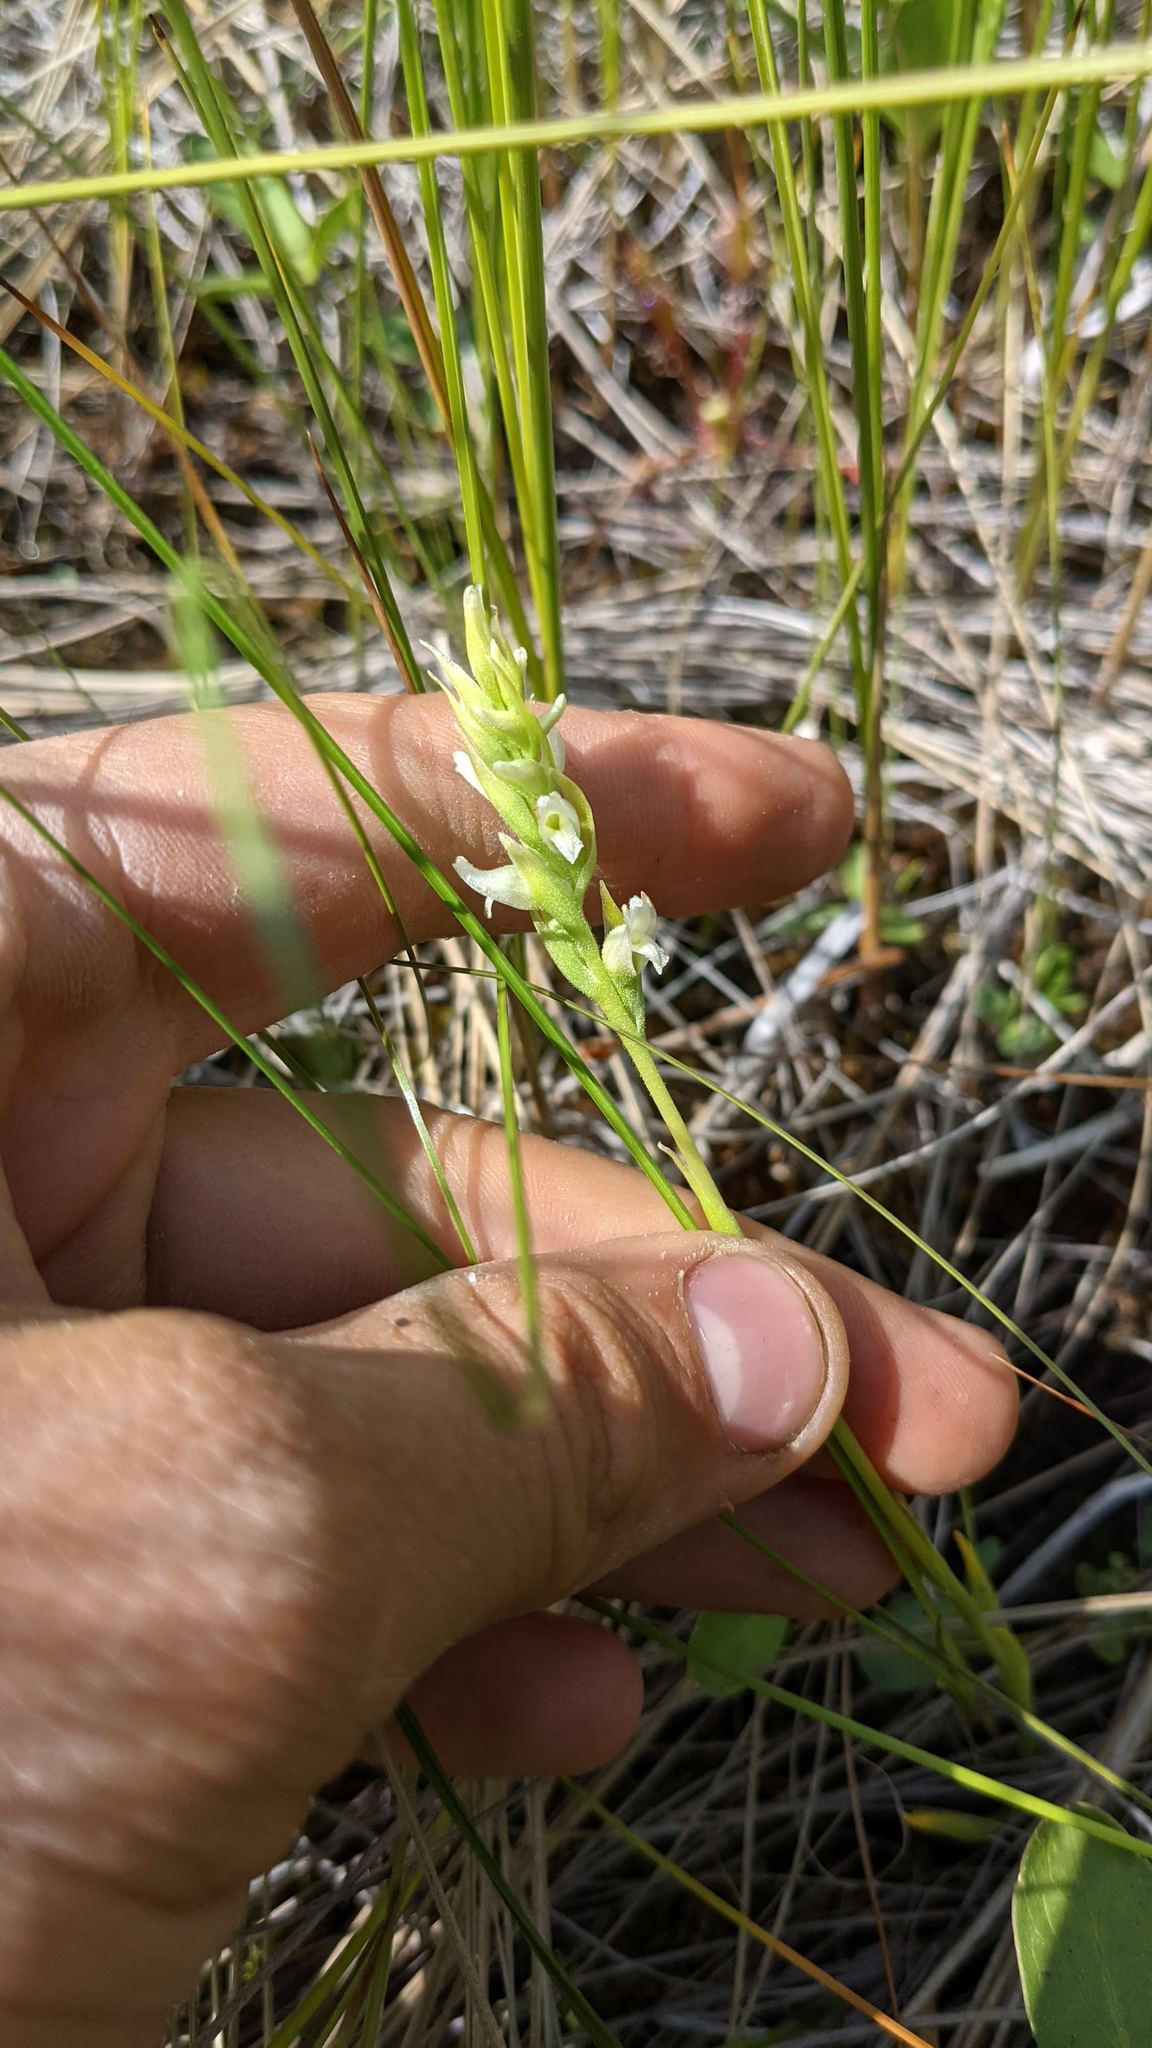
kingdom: Plantae
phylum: Tracheophyta
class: Liliopsida
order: Asparagales
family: Orchidaceae
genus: Spiranthes
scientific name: Spiranthes romanzoffiana
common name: Irish lady's-tresses
